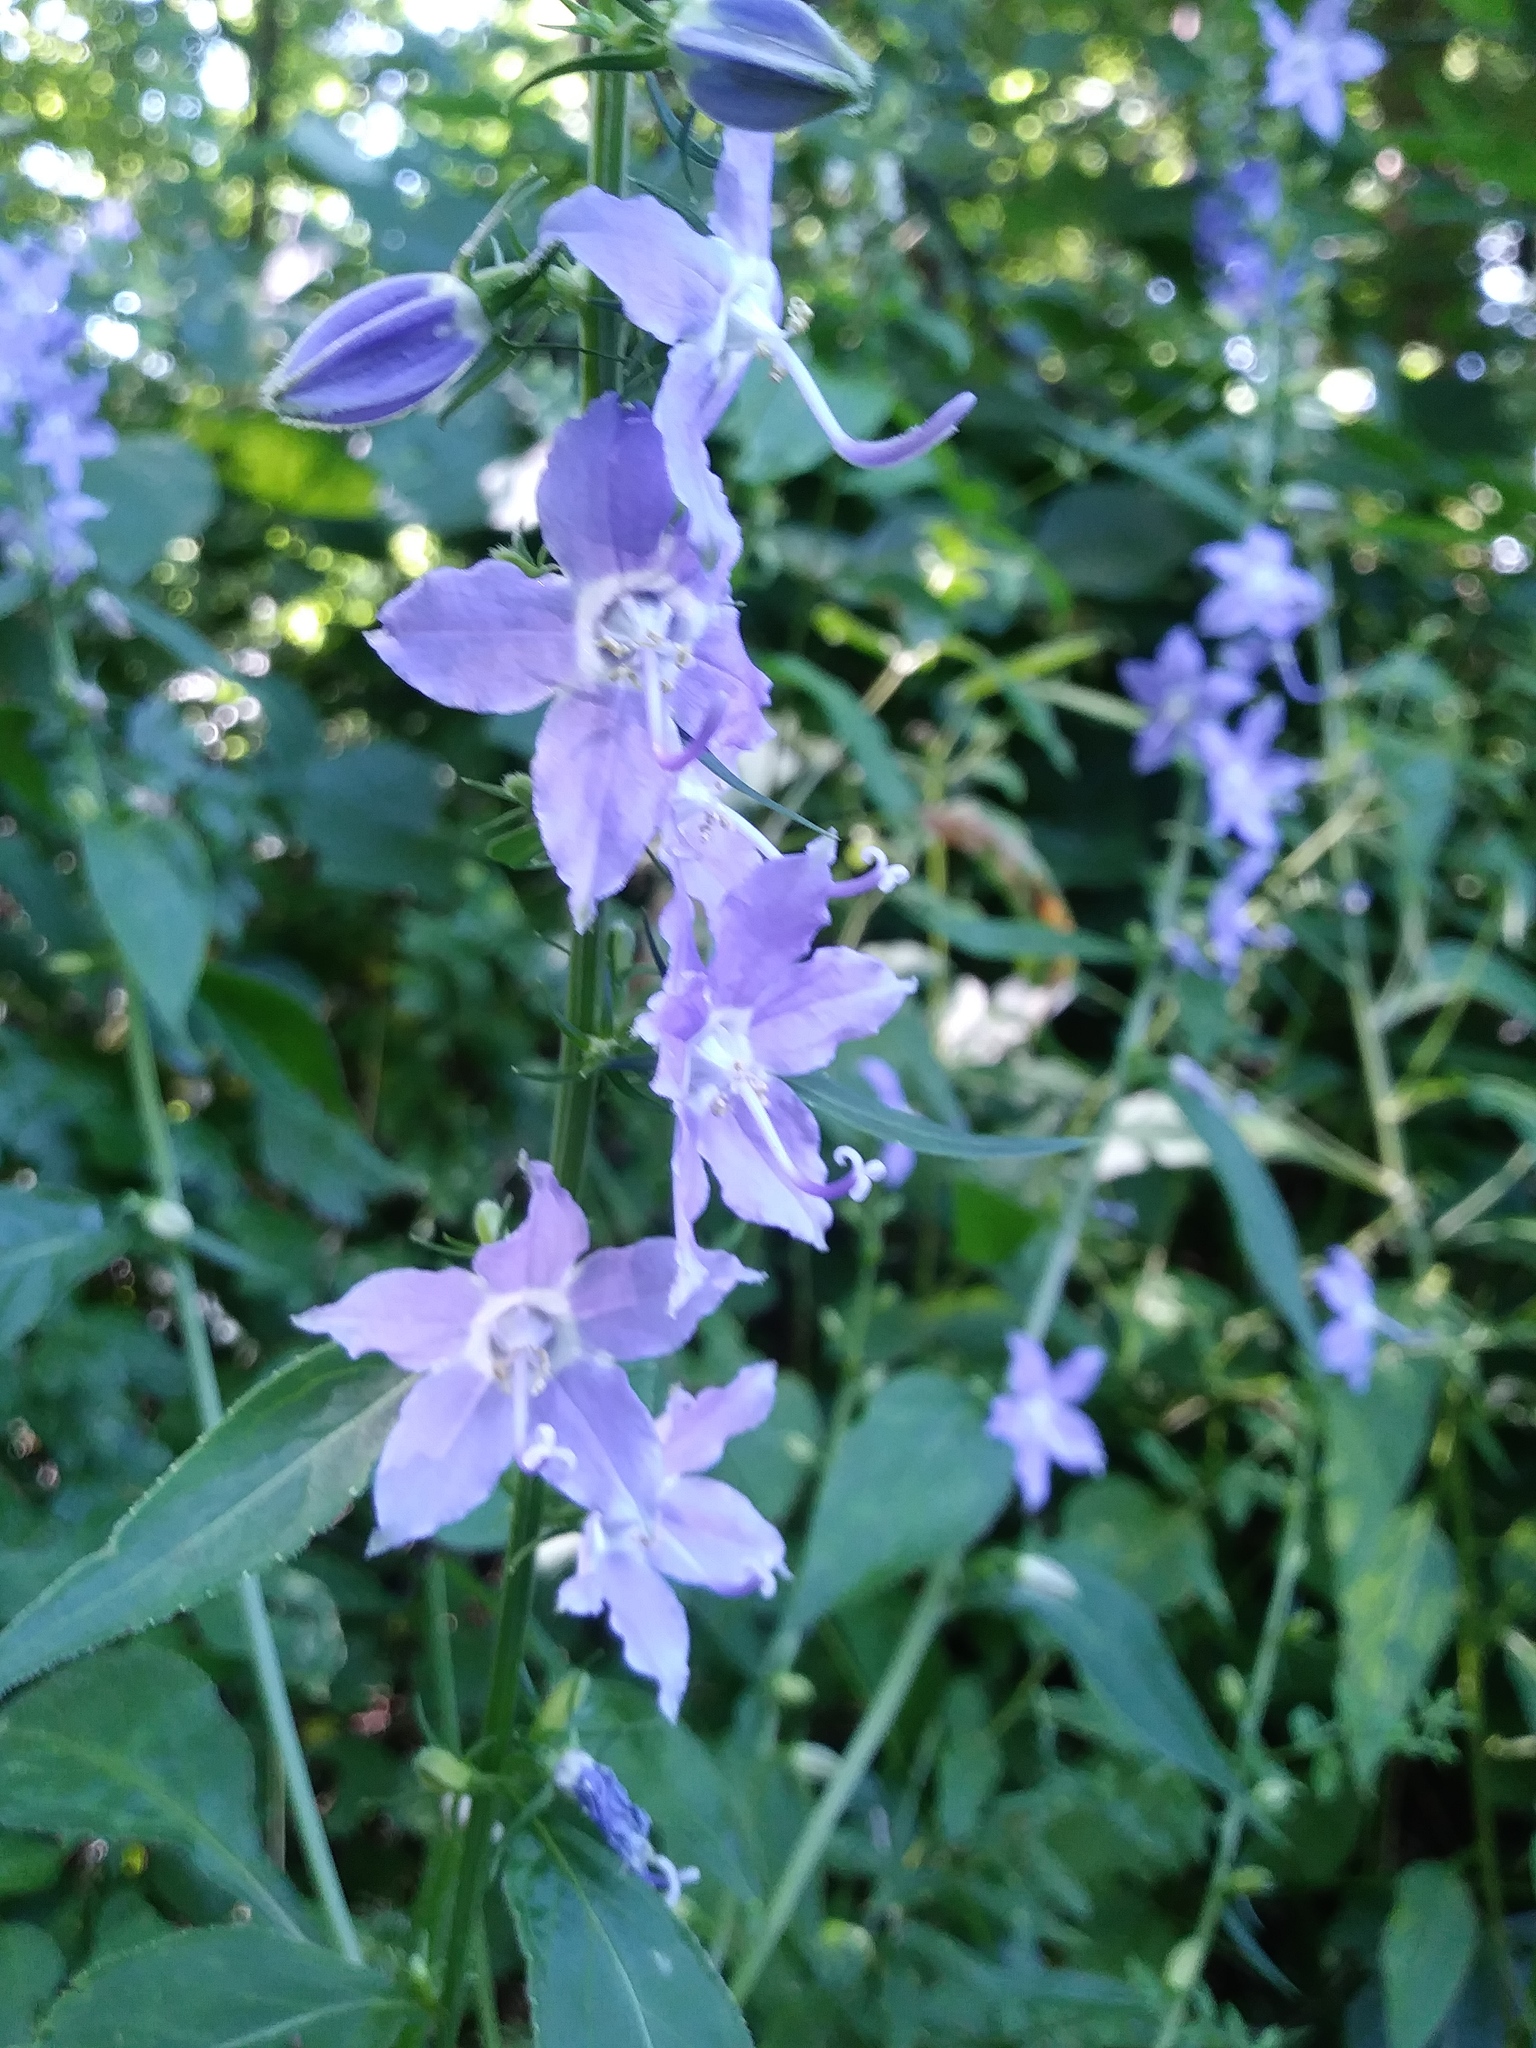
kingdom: Plantae
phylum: Tracheophyta
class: Magnoliopsida
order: Asterales
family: Campanulaceae
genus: Campanulastrum
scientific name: Campanulastrum americanum
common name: American bellflower
